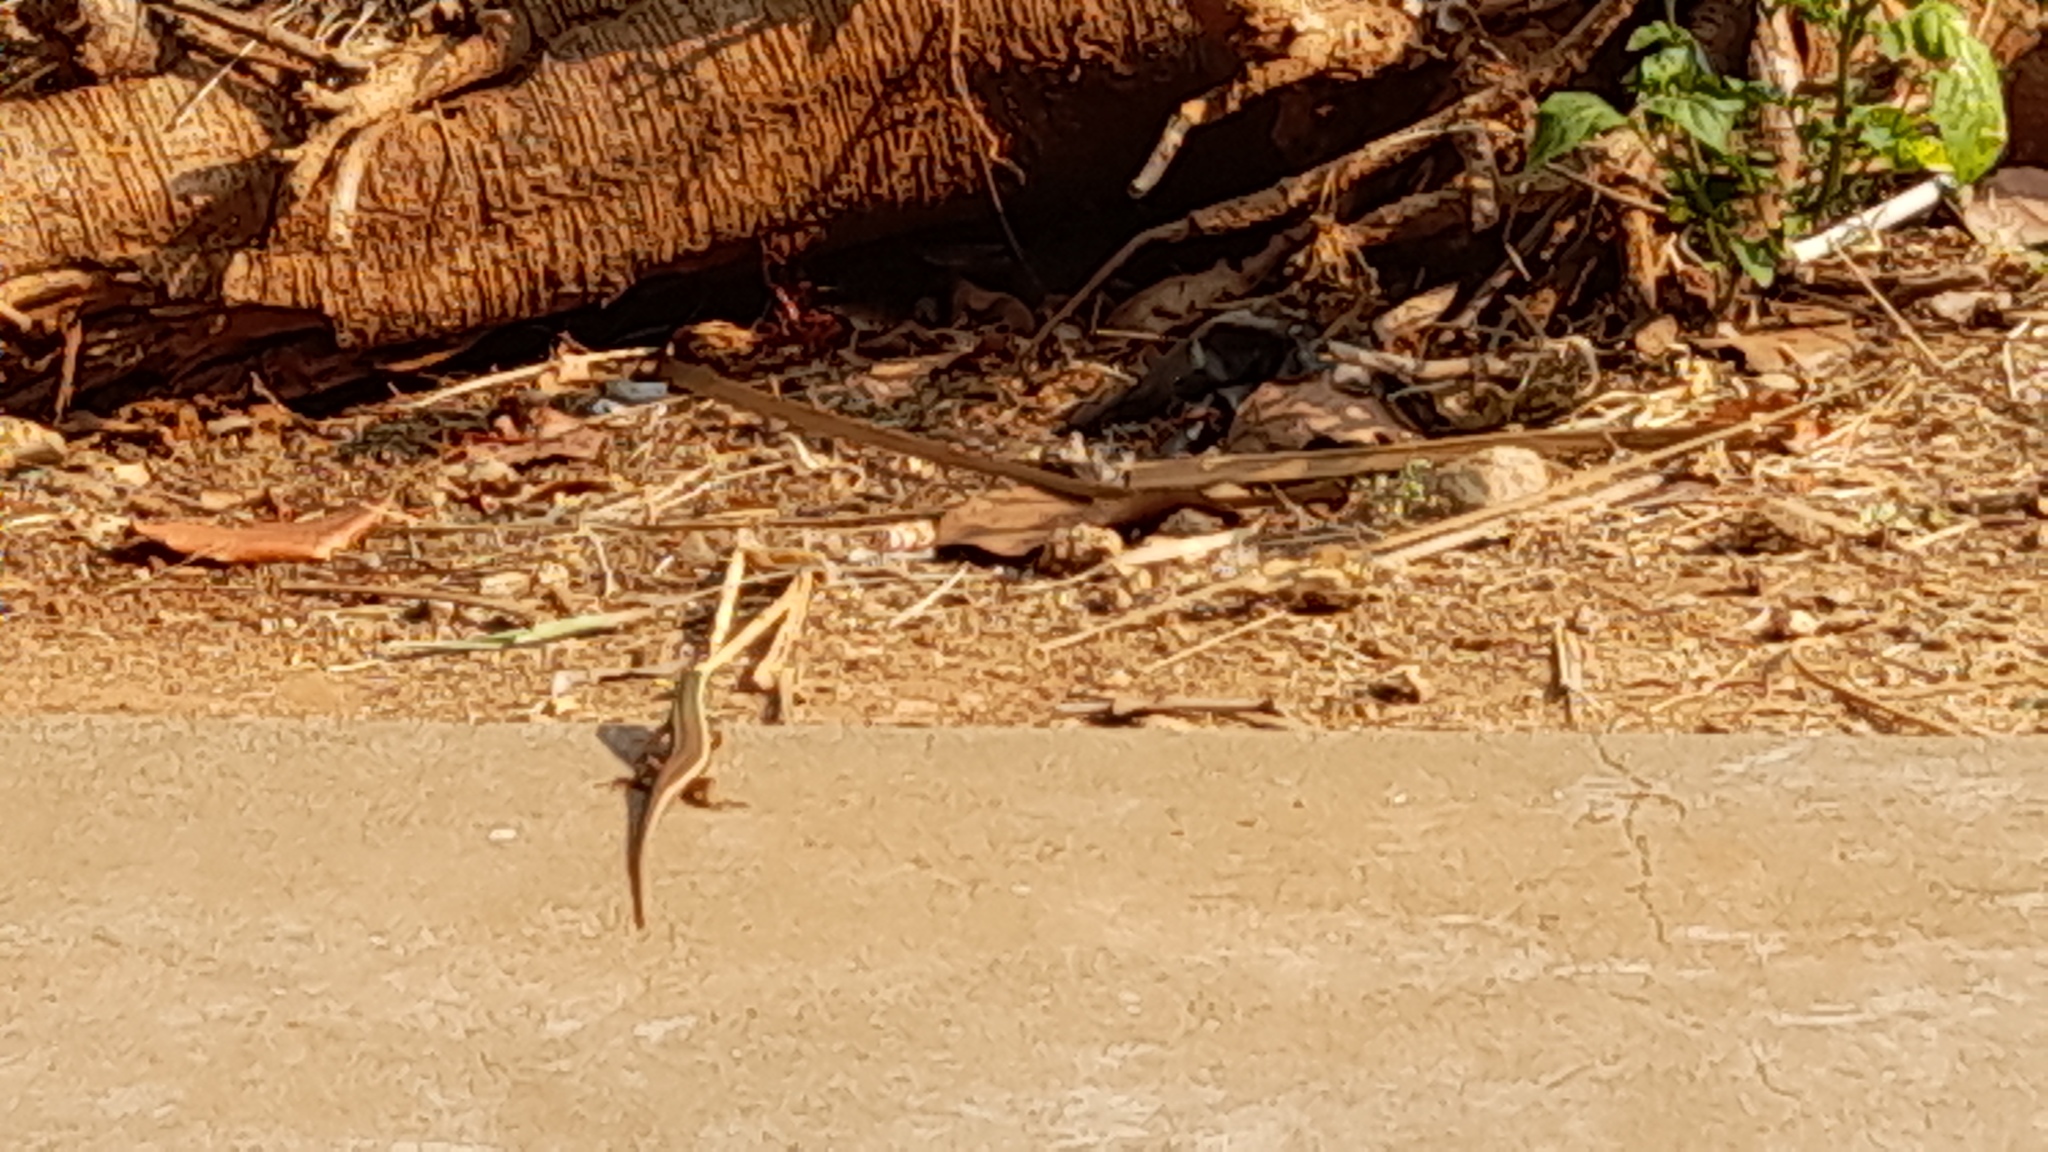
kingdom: Animalia
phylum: Chordata
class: Squamata
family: Agamidae
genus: Calotes
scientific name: Calotes versicolor
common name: Oriental garden lizard
